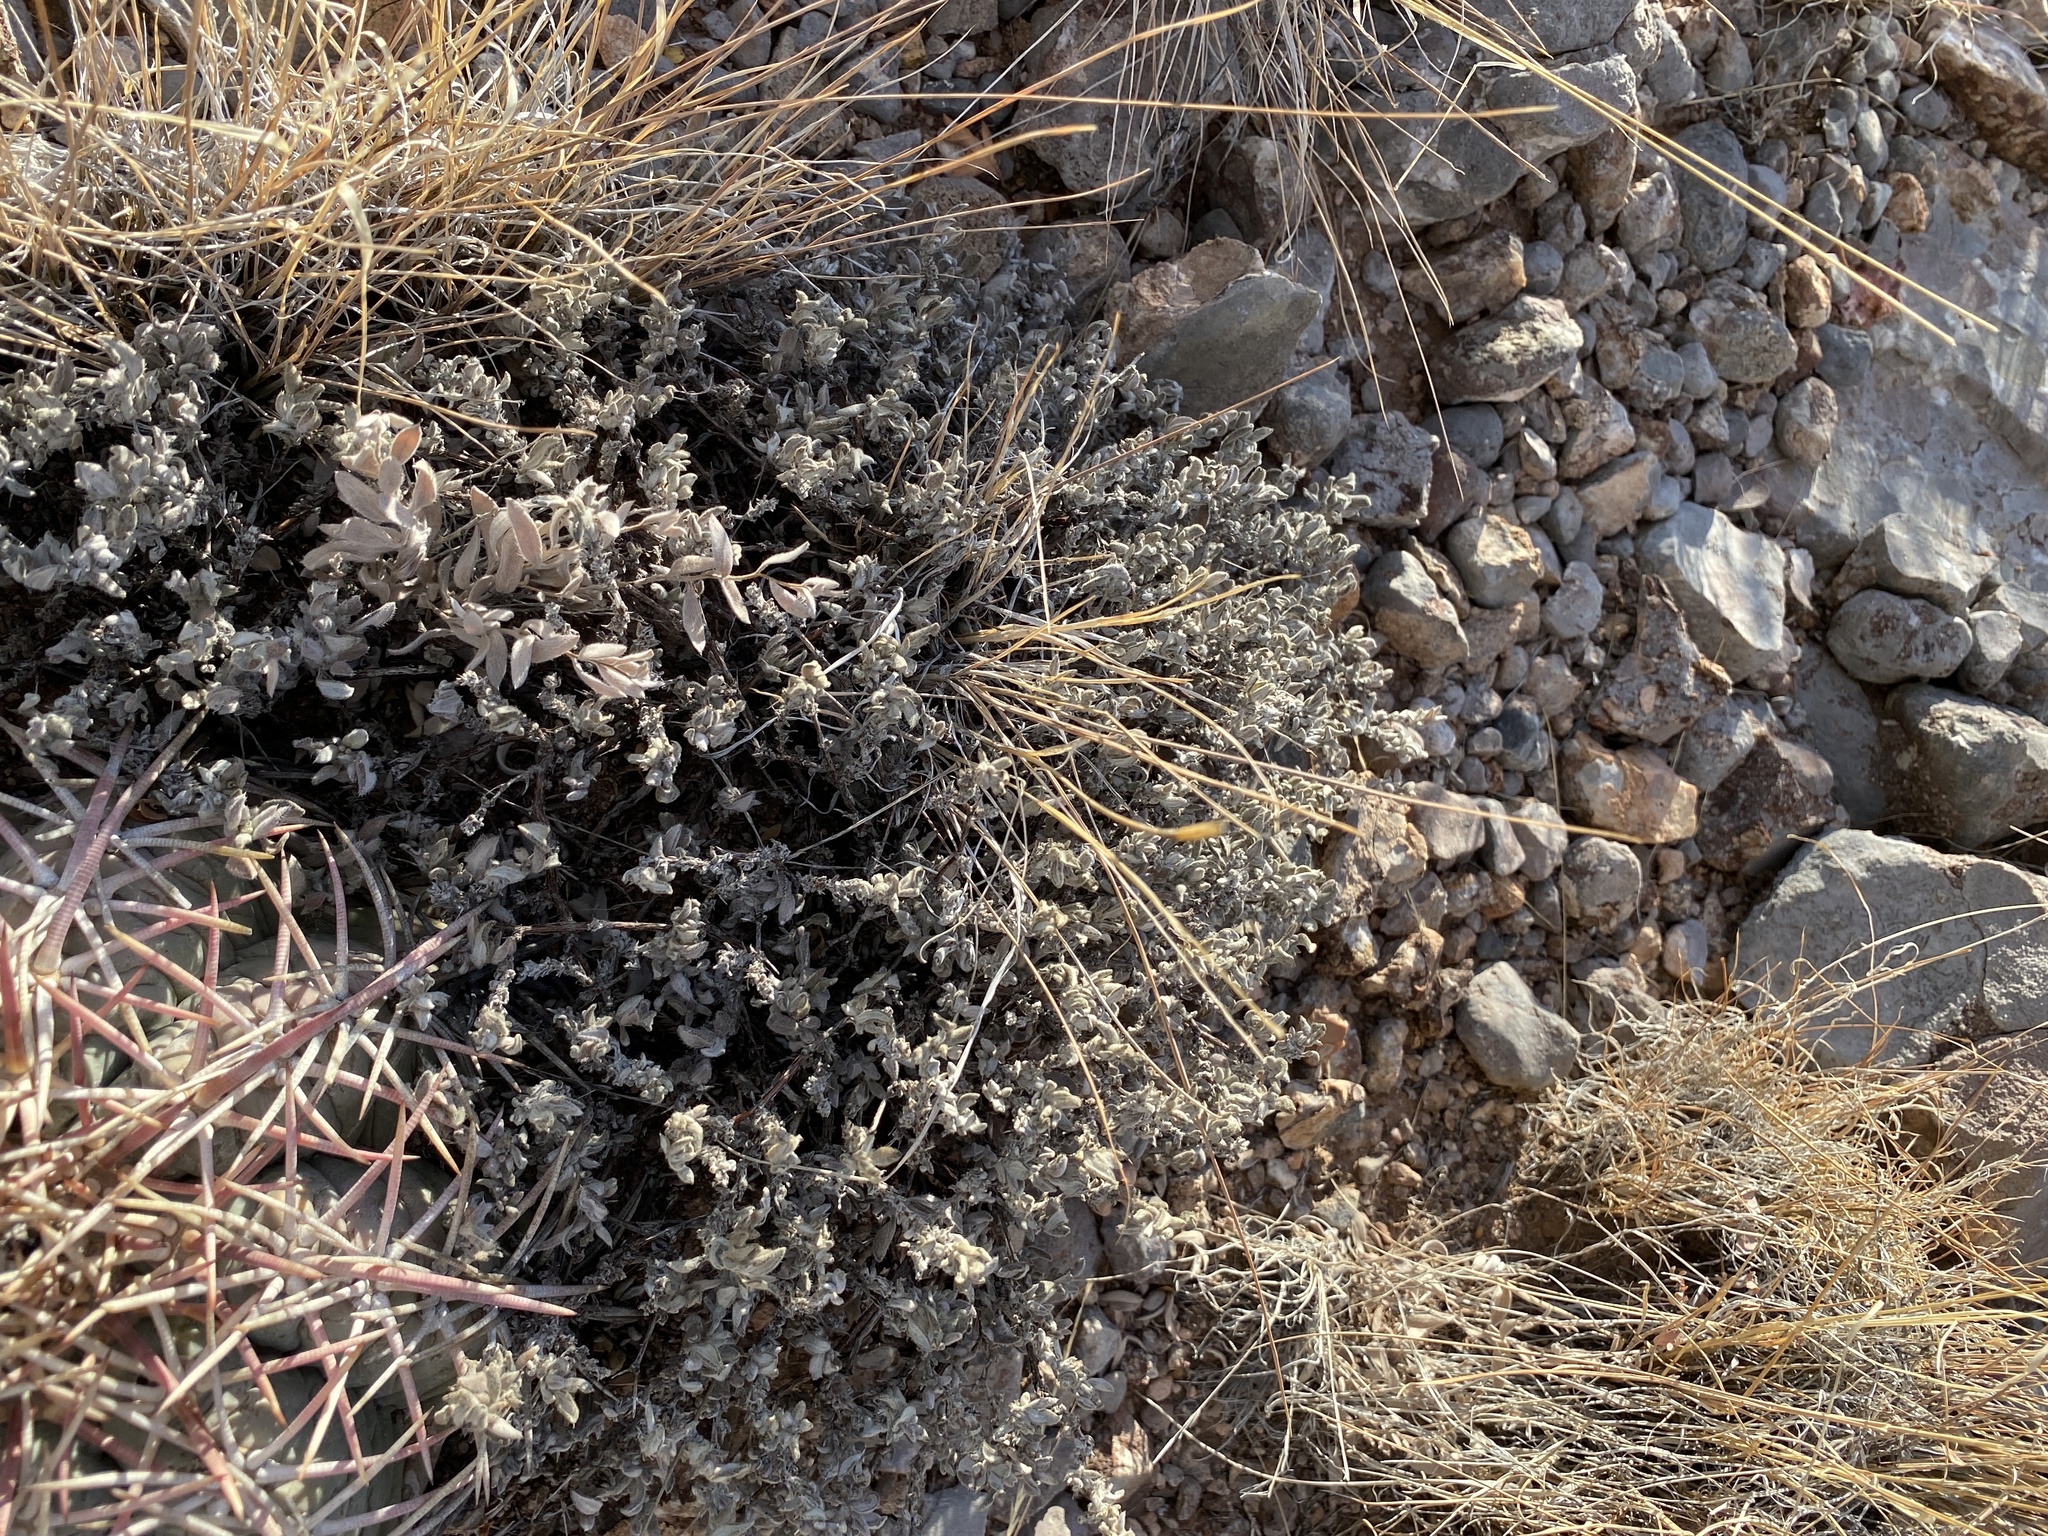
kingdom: Plantae
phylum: Tracheophyta
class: Magnoliopsida
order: Boraginales
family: Ehretiaceae
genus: Tiquilia
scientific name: Tiquilia canescens
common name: Hairy tiquilia
